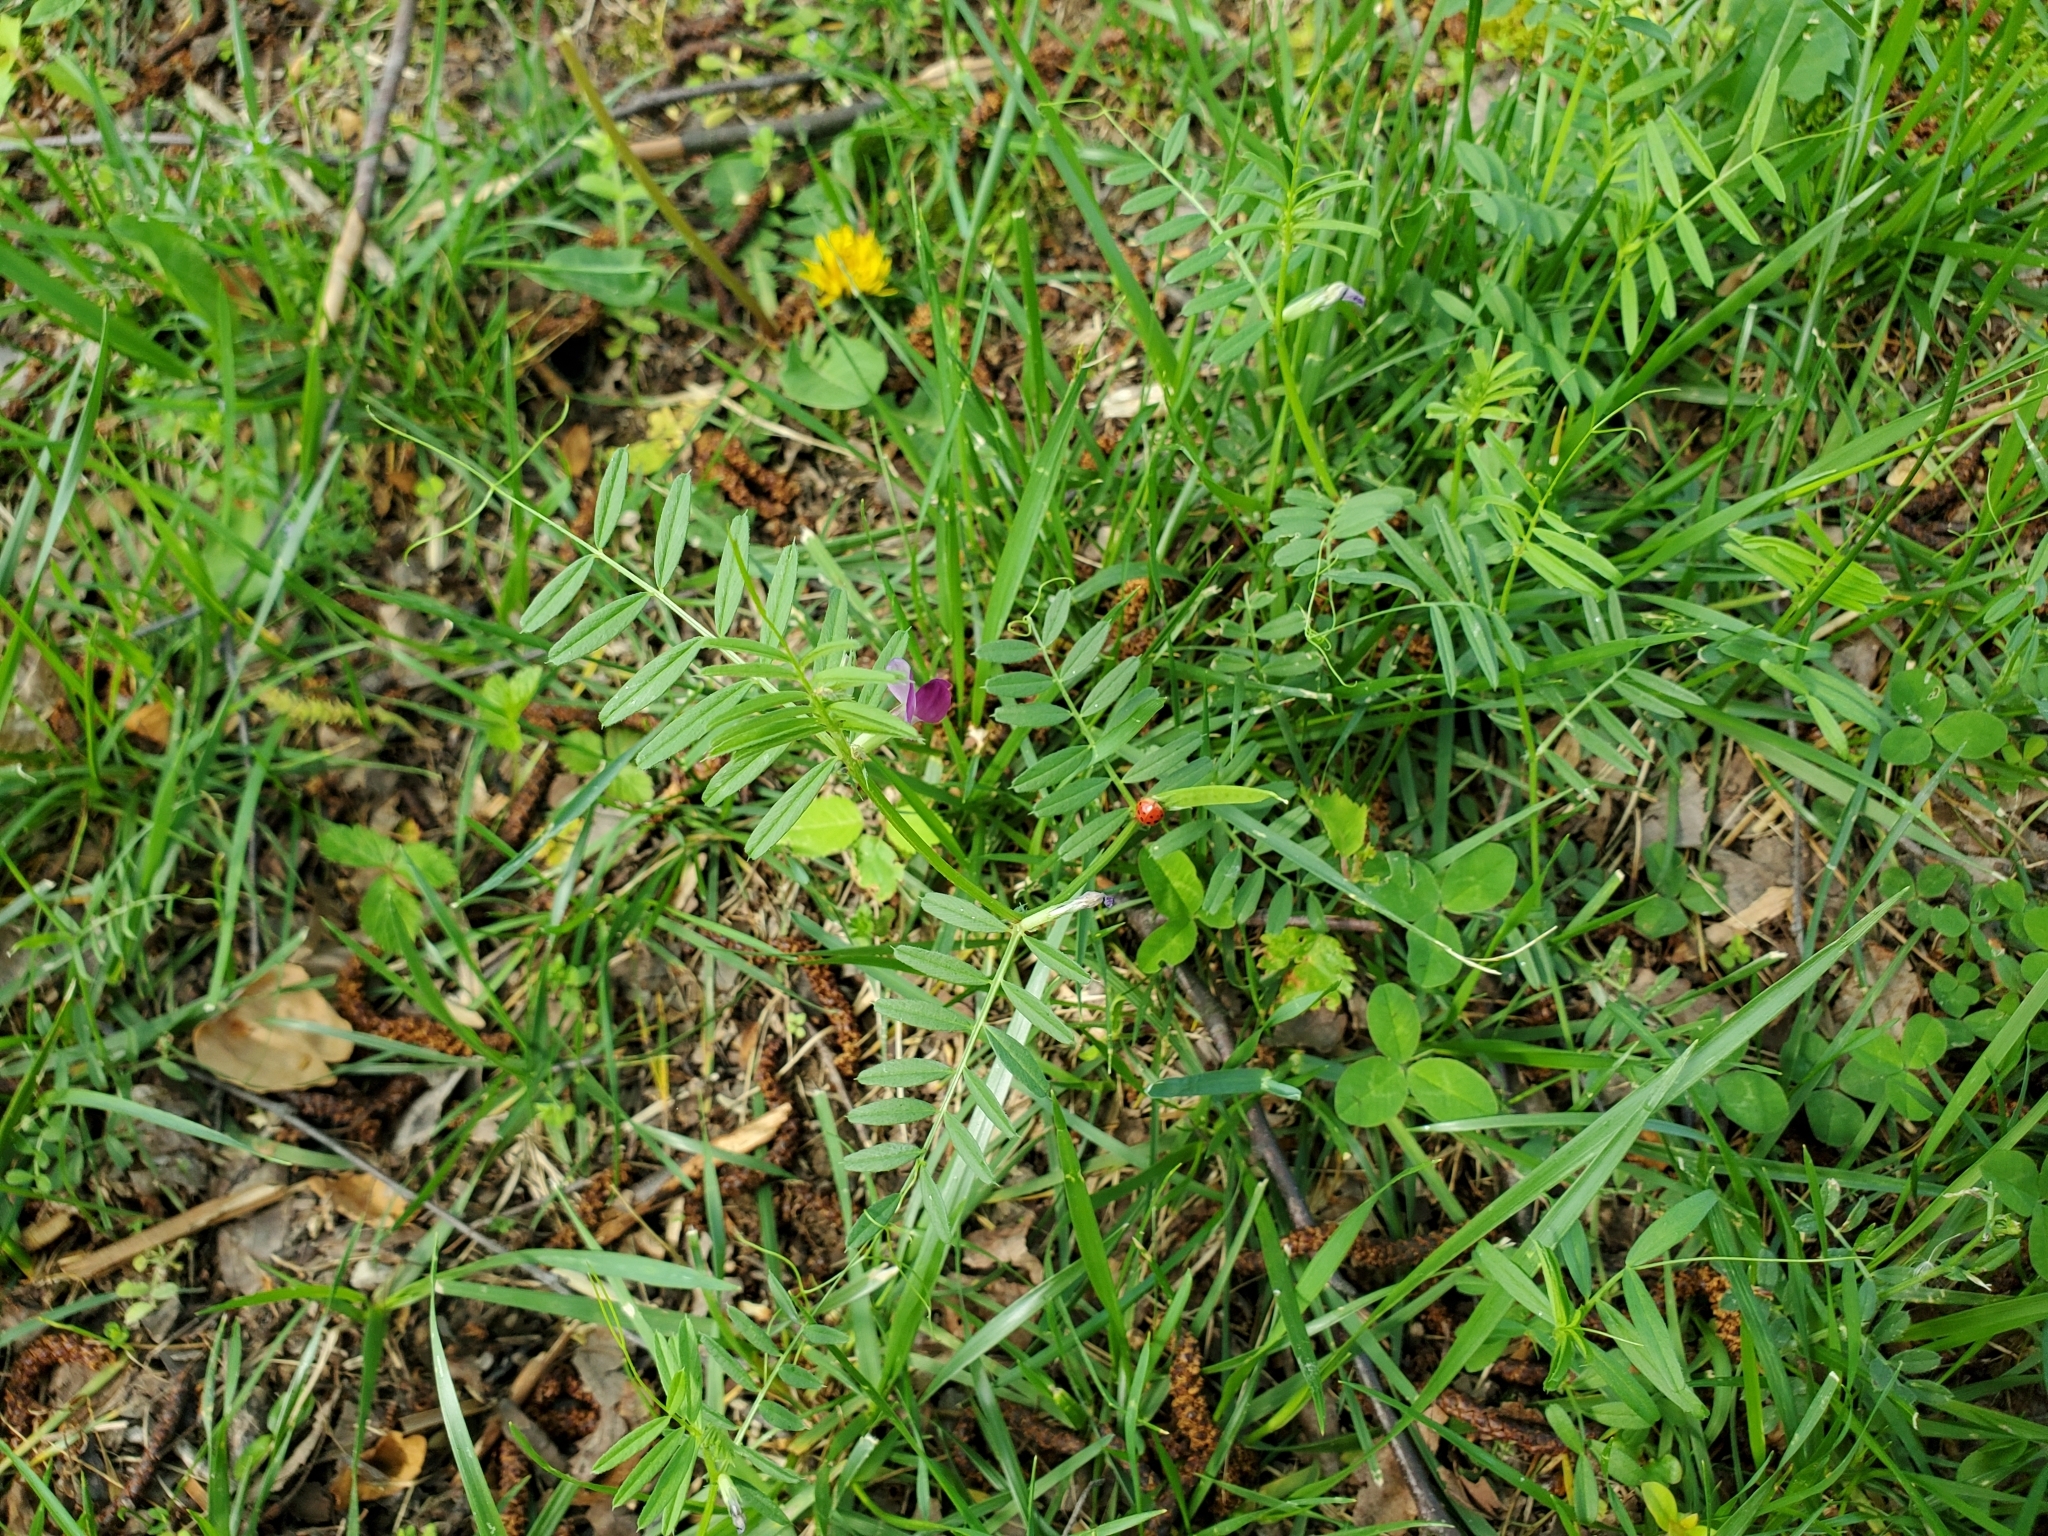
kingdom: Plantae
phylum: Tracheophyta
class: Magnoliopsida
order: Fabales
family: Fabaceae
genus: Vicia
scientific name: Vicia sativa
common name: Garden vetch
